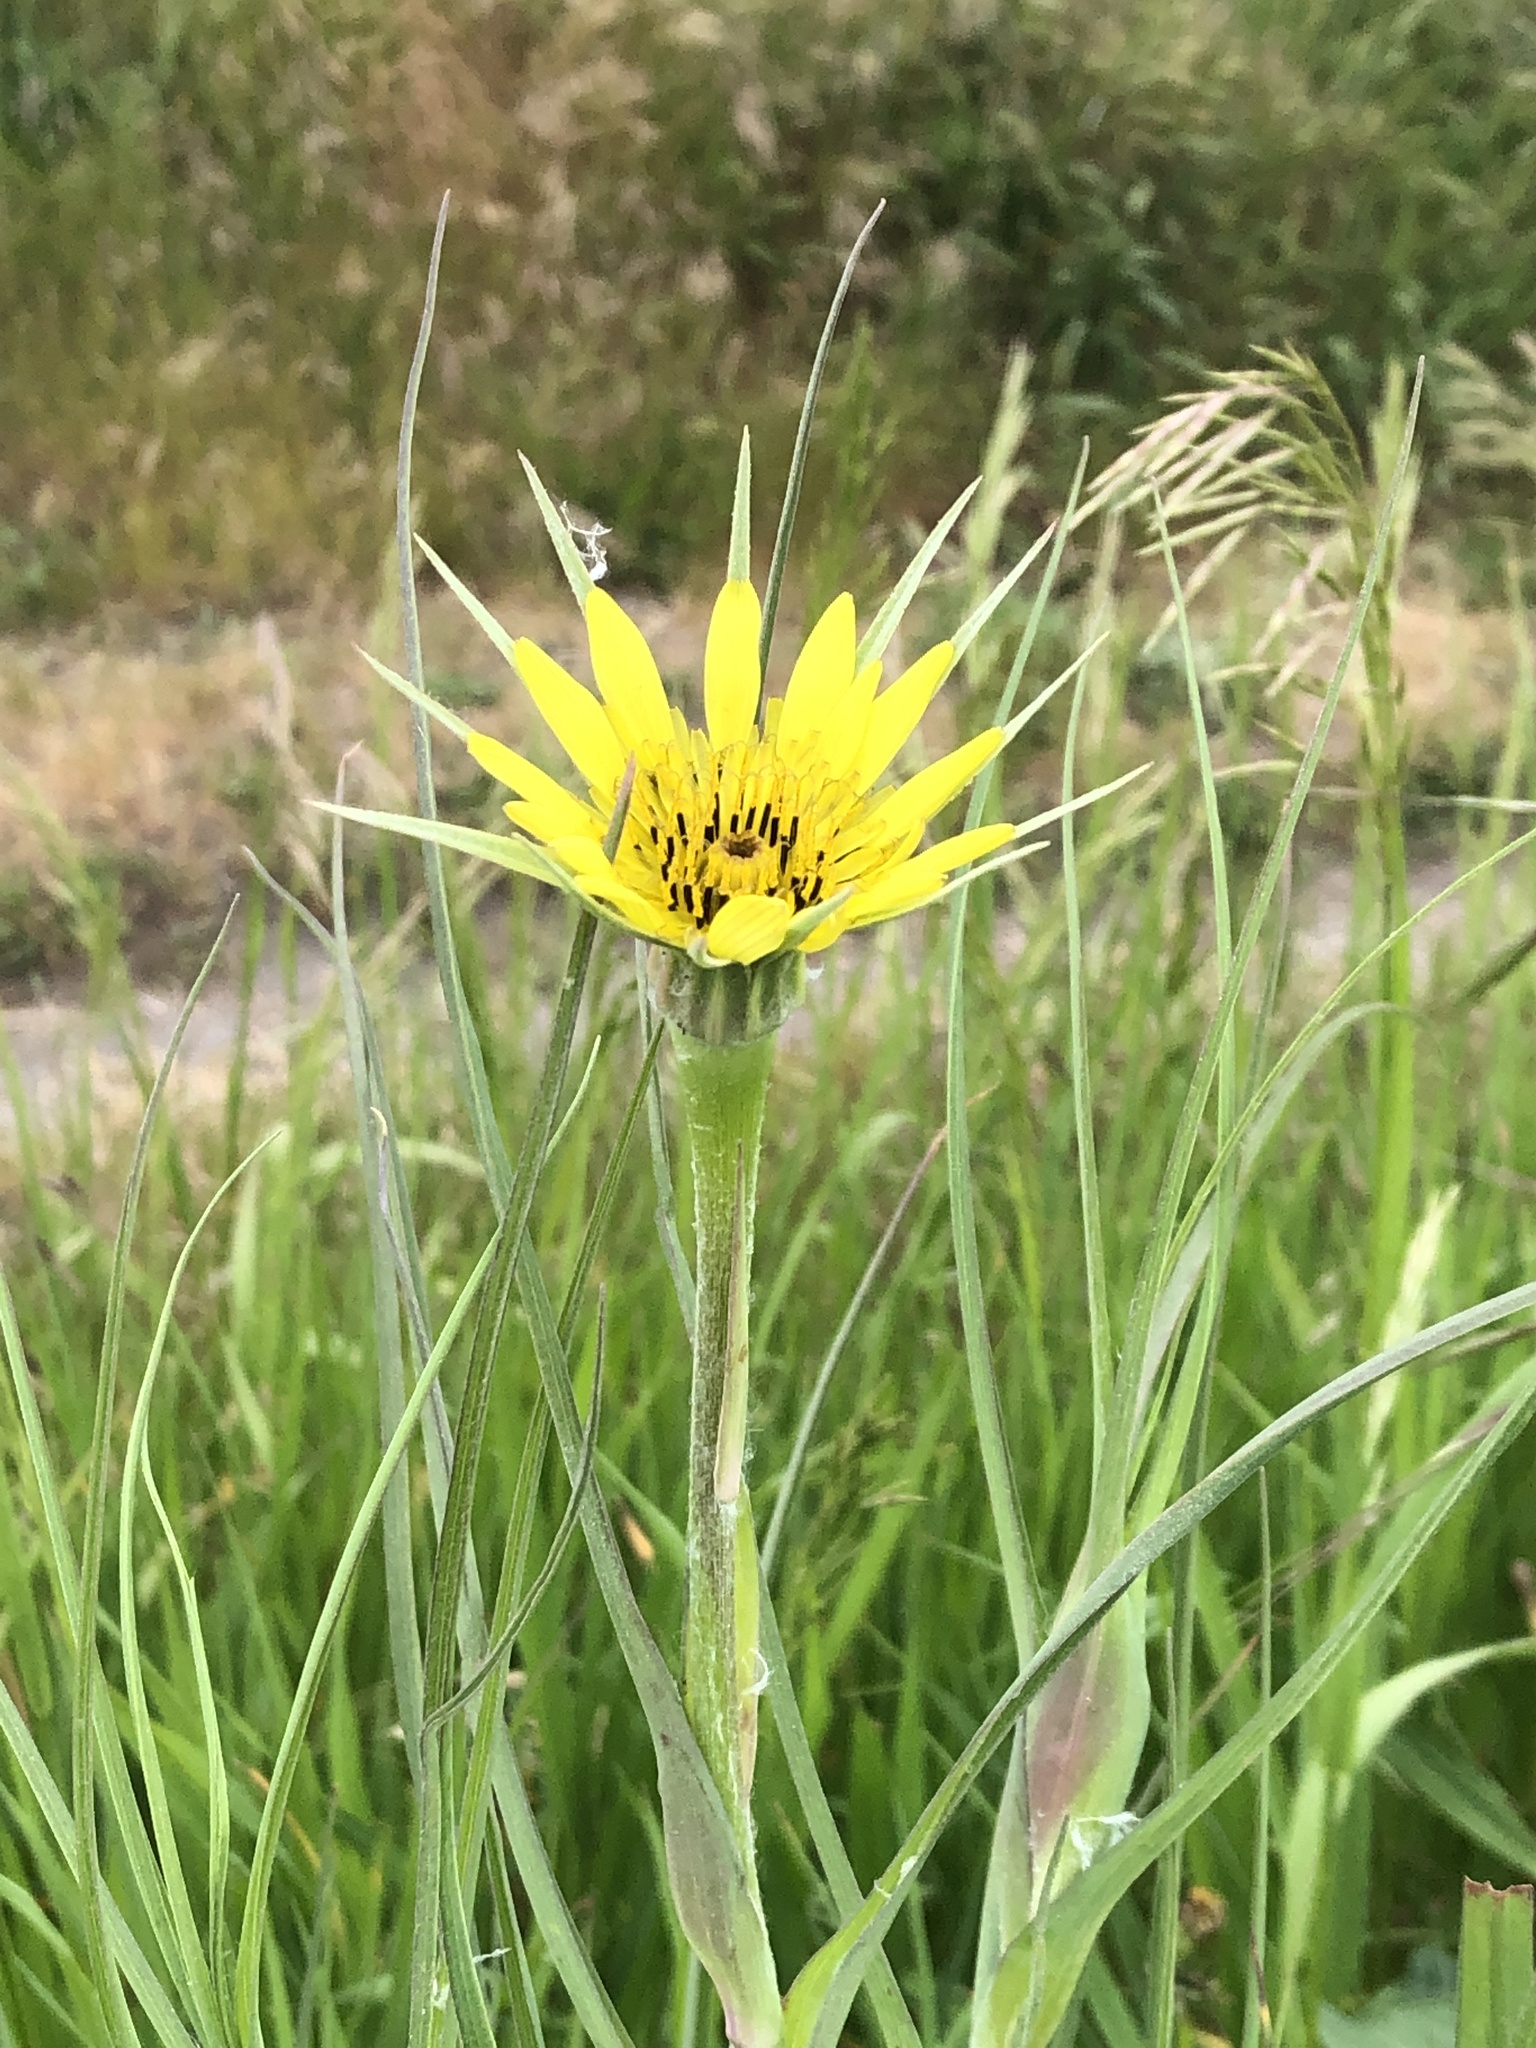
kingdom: Plantae
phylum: Tracheophyta
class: Magnoliopsida
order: Asterales
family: Asteraceae
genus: Tragopogon
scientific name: Tragopogon dubius
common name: Yellow salsify
